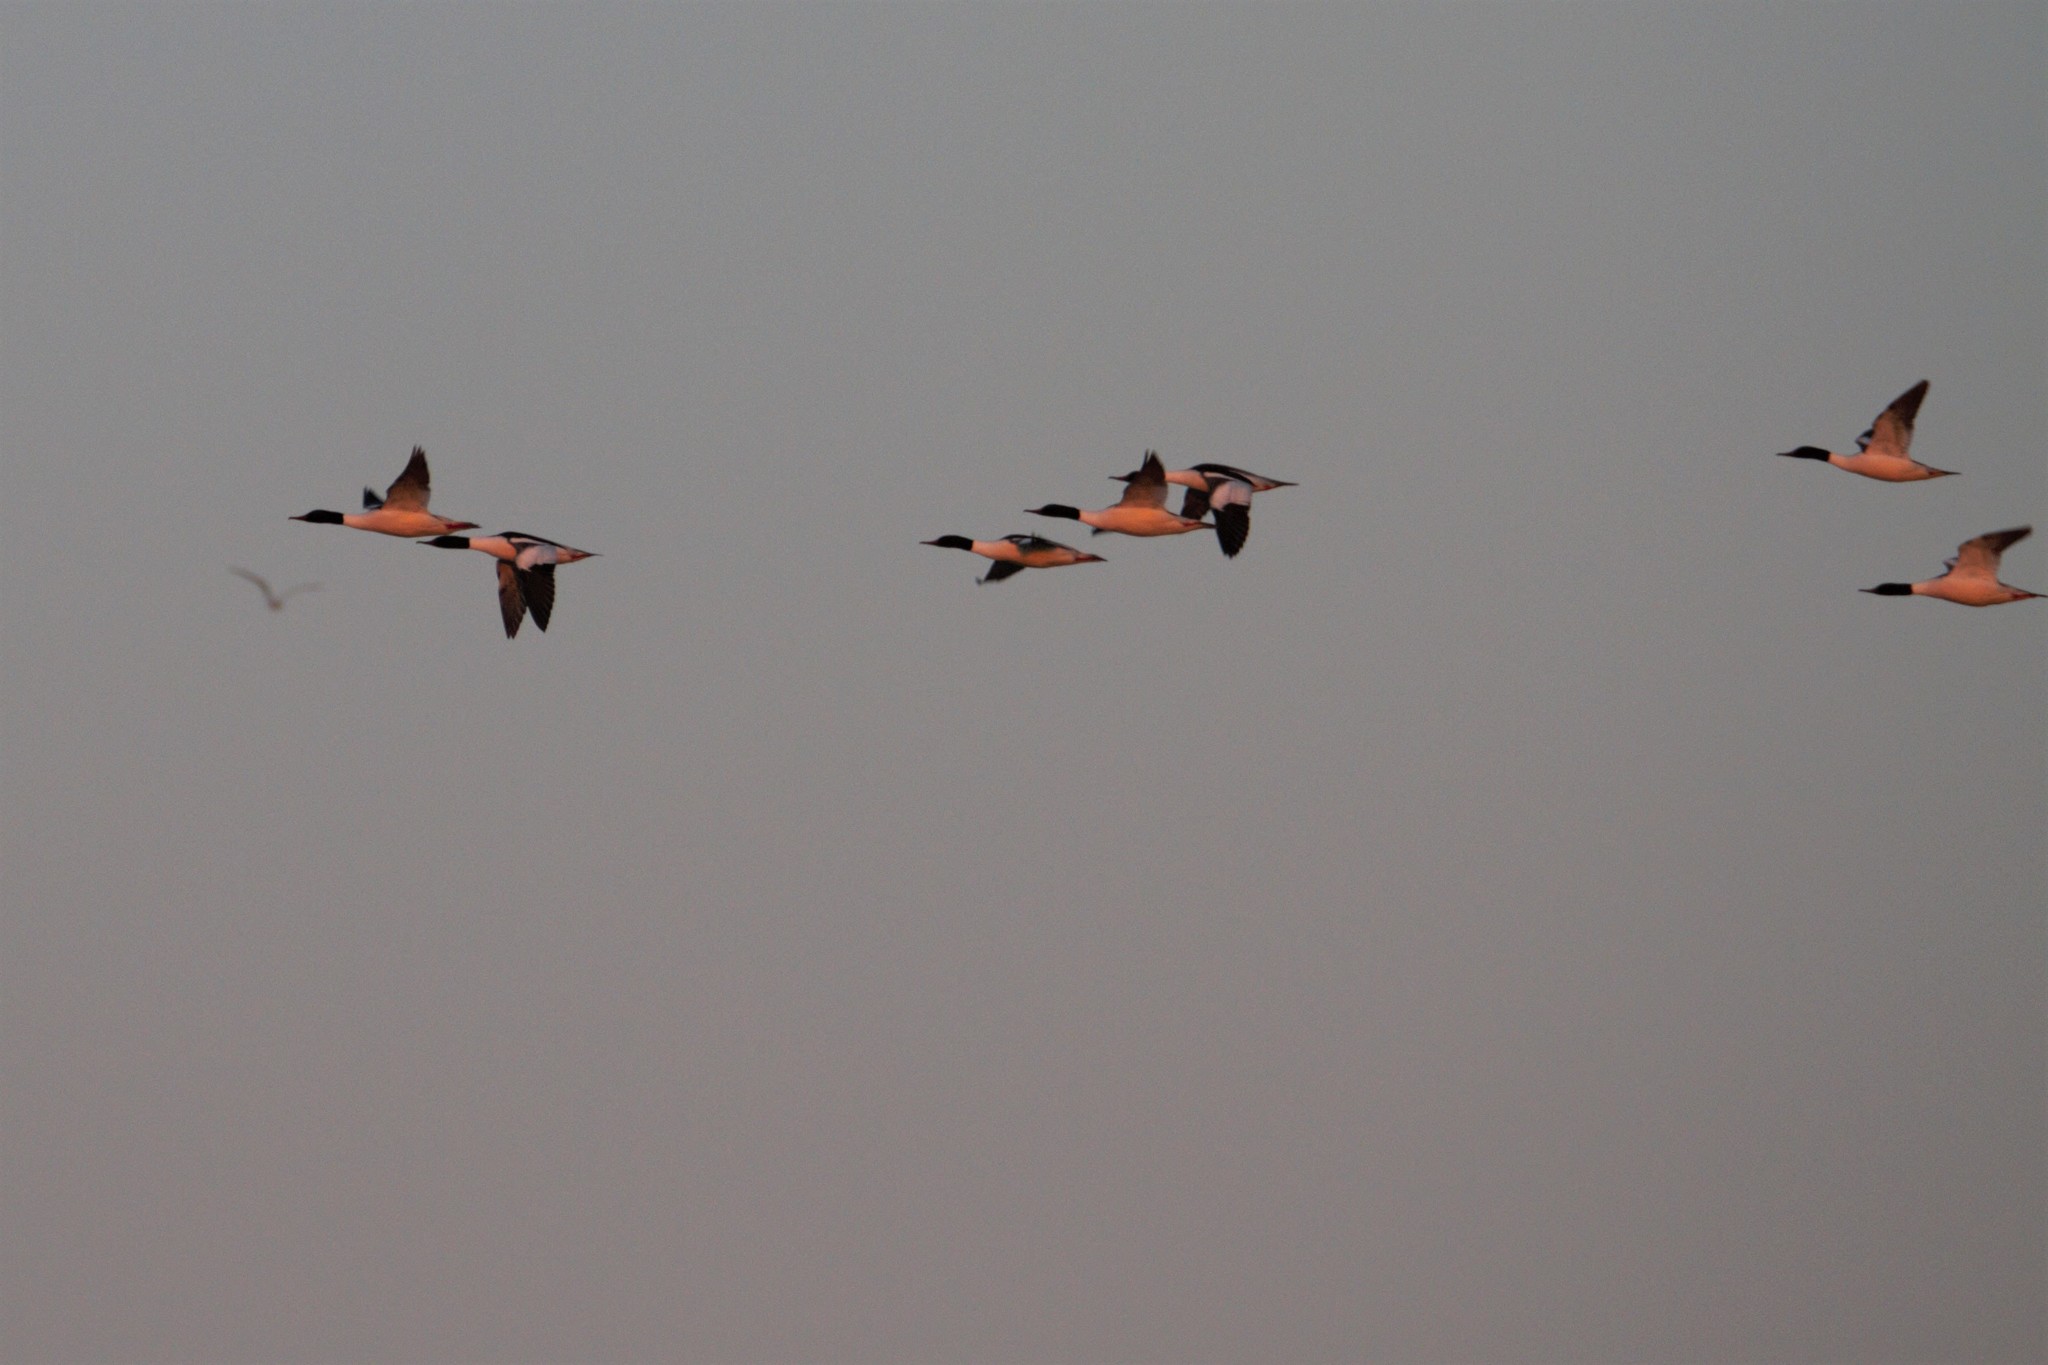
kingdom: Animalia
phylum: Chordata
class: Aves
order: Anseriformes
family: Anatidae
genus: Mergus
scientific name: Mergus merganser
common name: Common merganser
